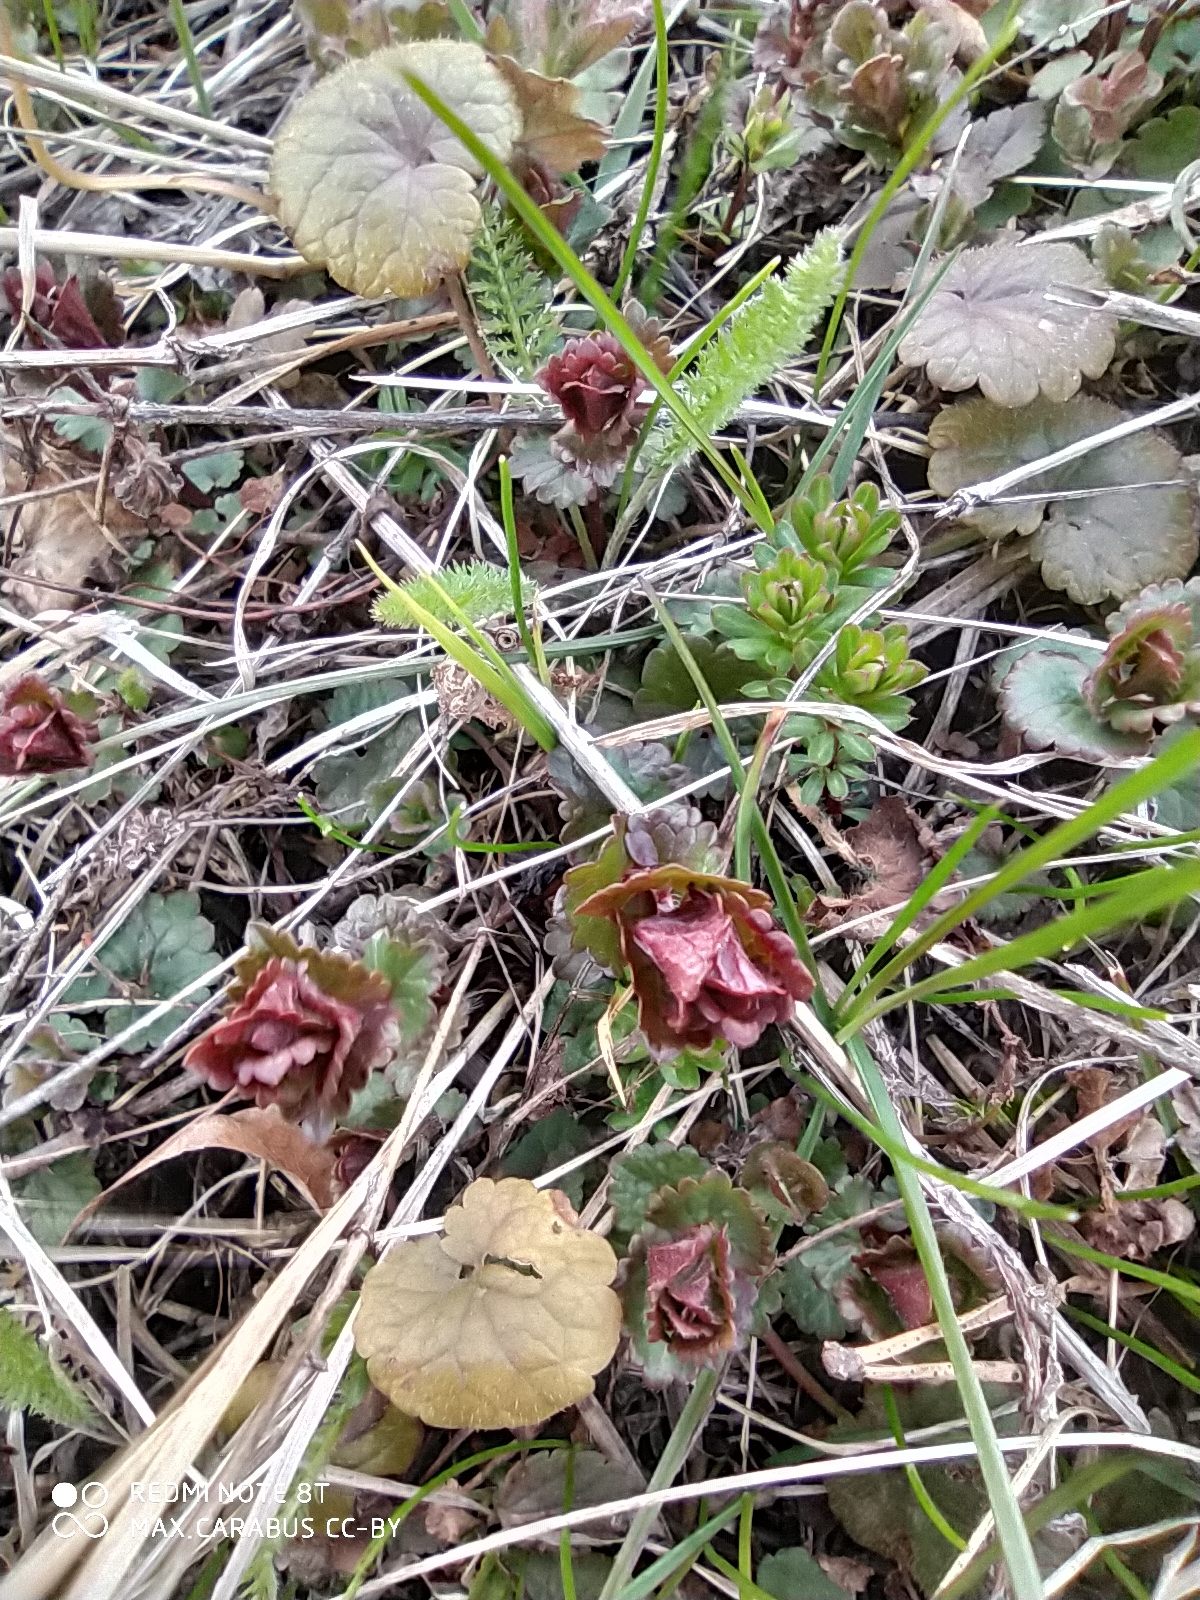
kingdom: Plantae
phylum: Tracheophyta
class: Magnoliopsida
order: Lamiales
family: Lamiaceae
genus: Glechoma
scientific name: Glechoma hederacea
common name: Ground ivy
